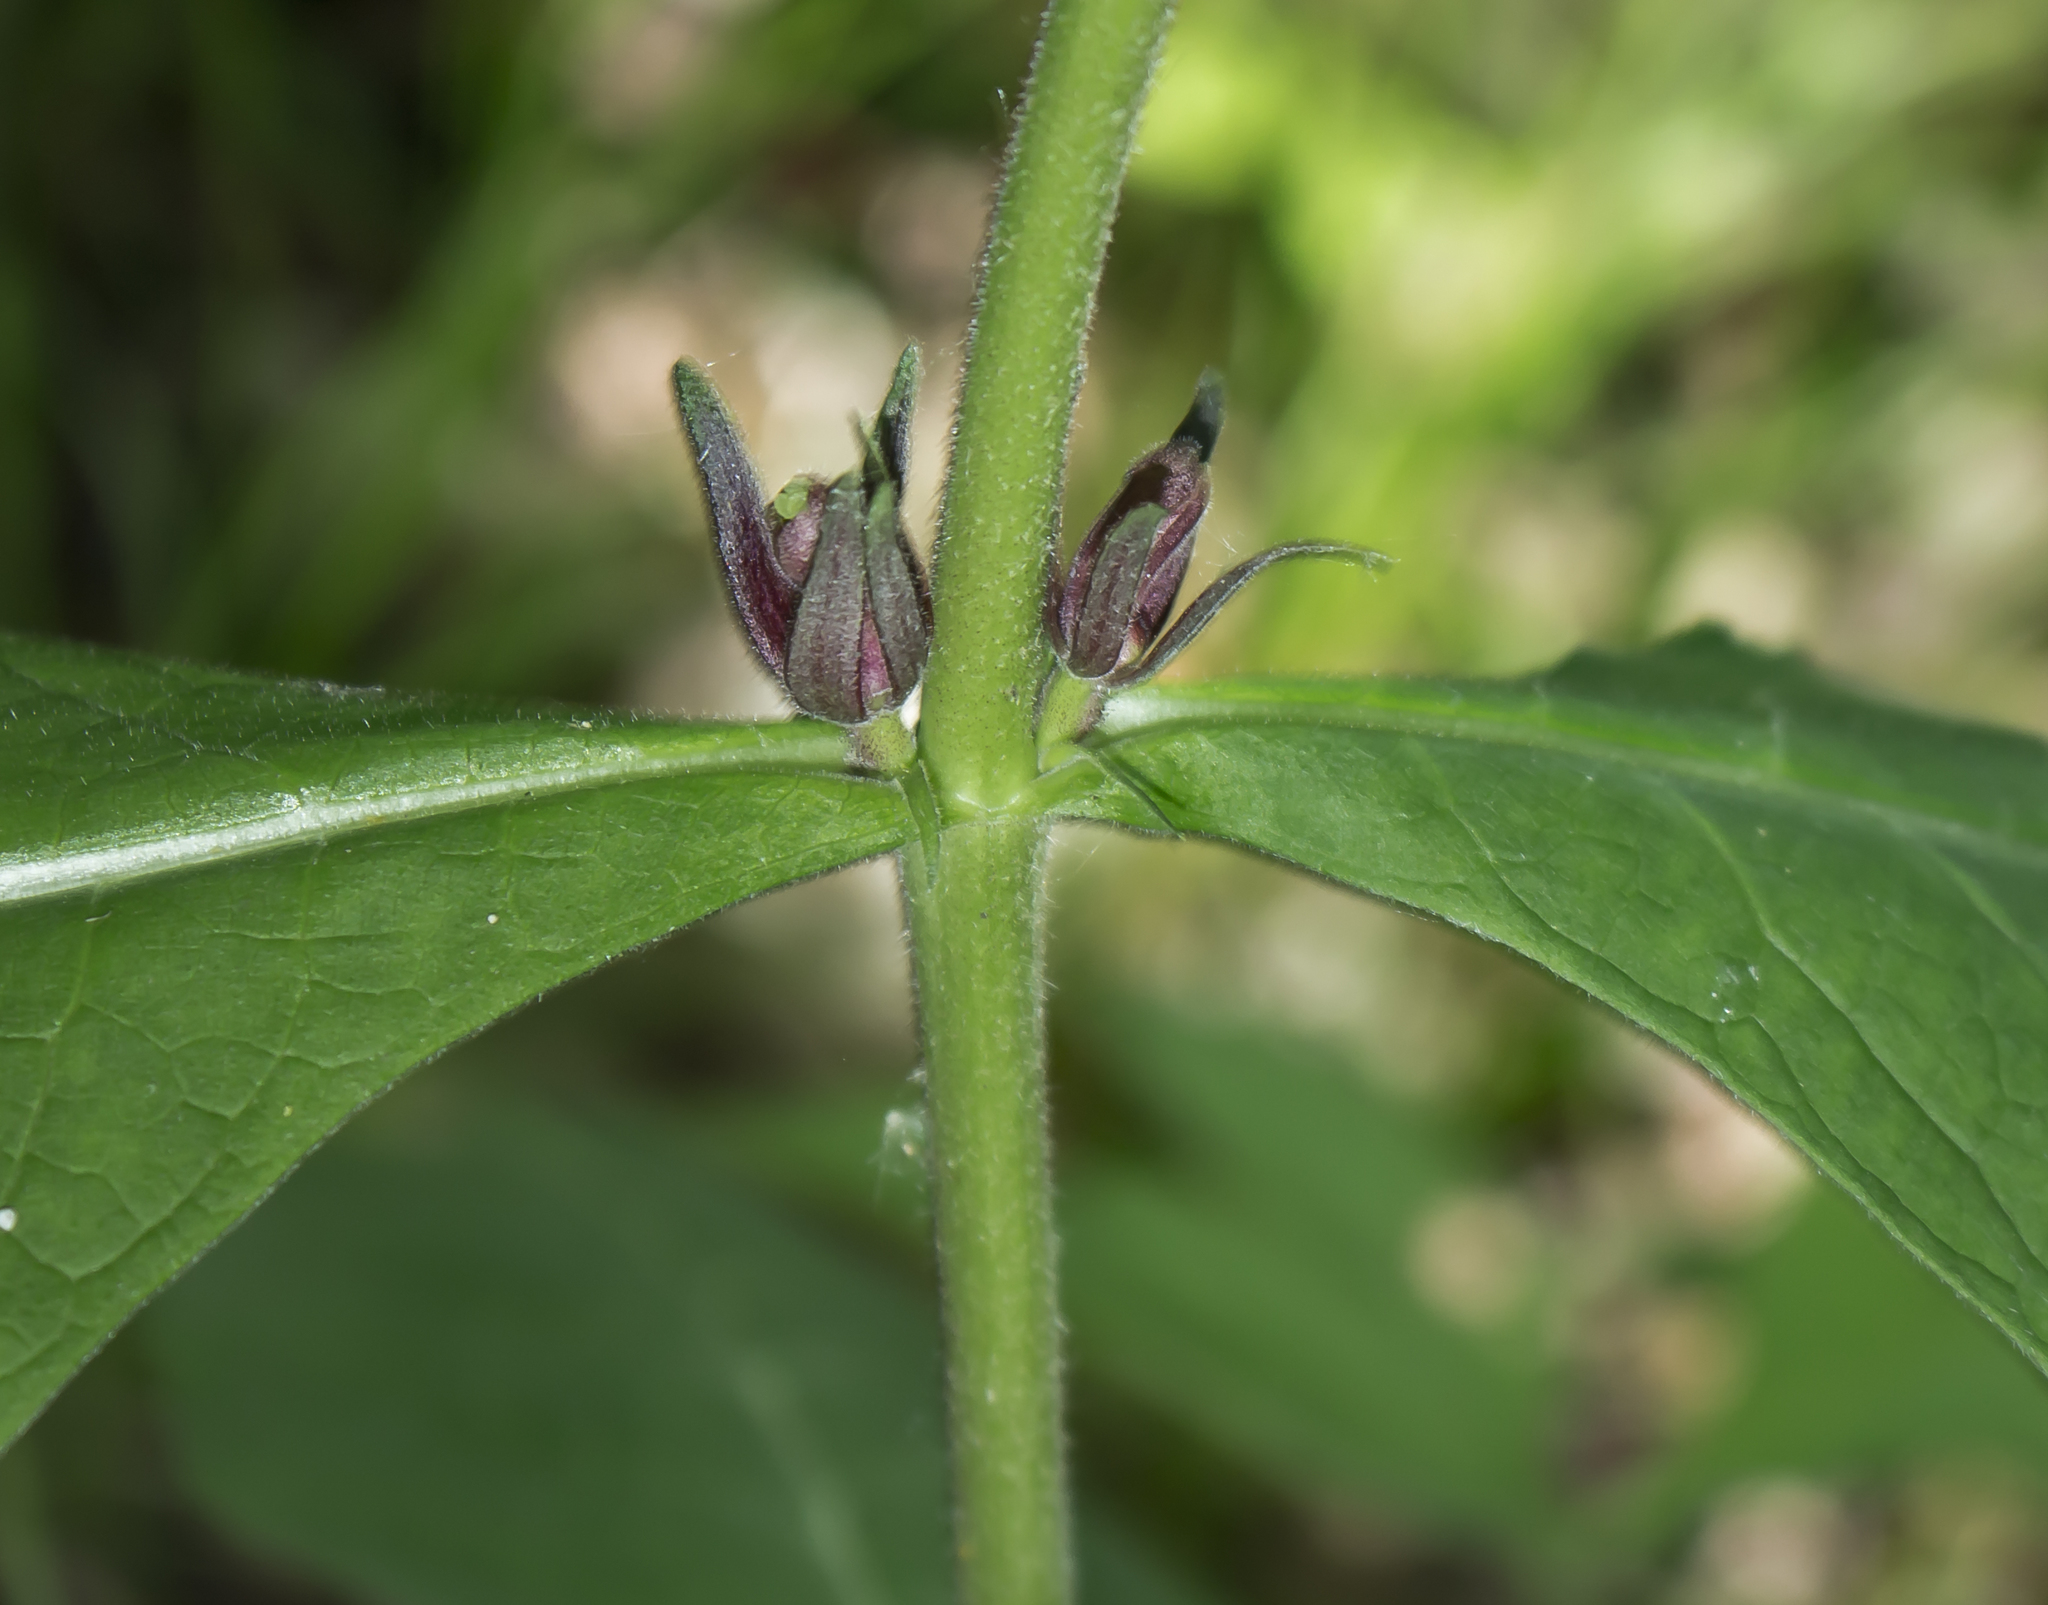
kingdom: Plantae
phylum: Tracheophyta
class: Magnoliopsida
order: Dipsacales
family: Caprifoliaceae
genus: Triosteum
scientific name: Triosteum aurantiacum
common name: Coffee tinker's-weed
